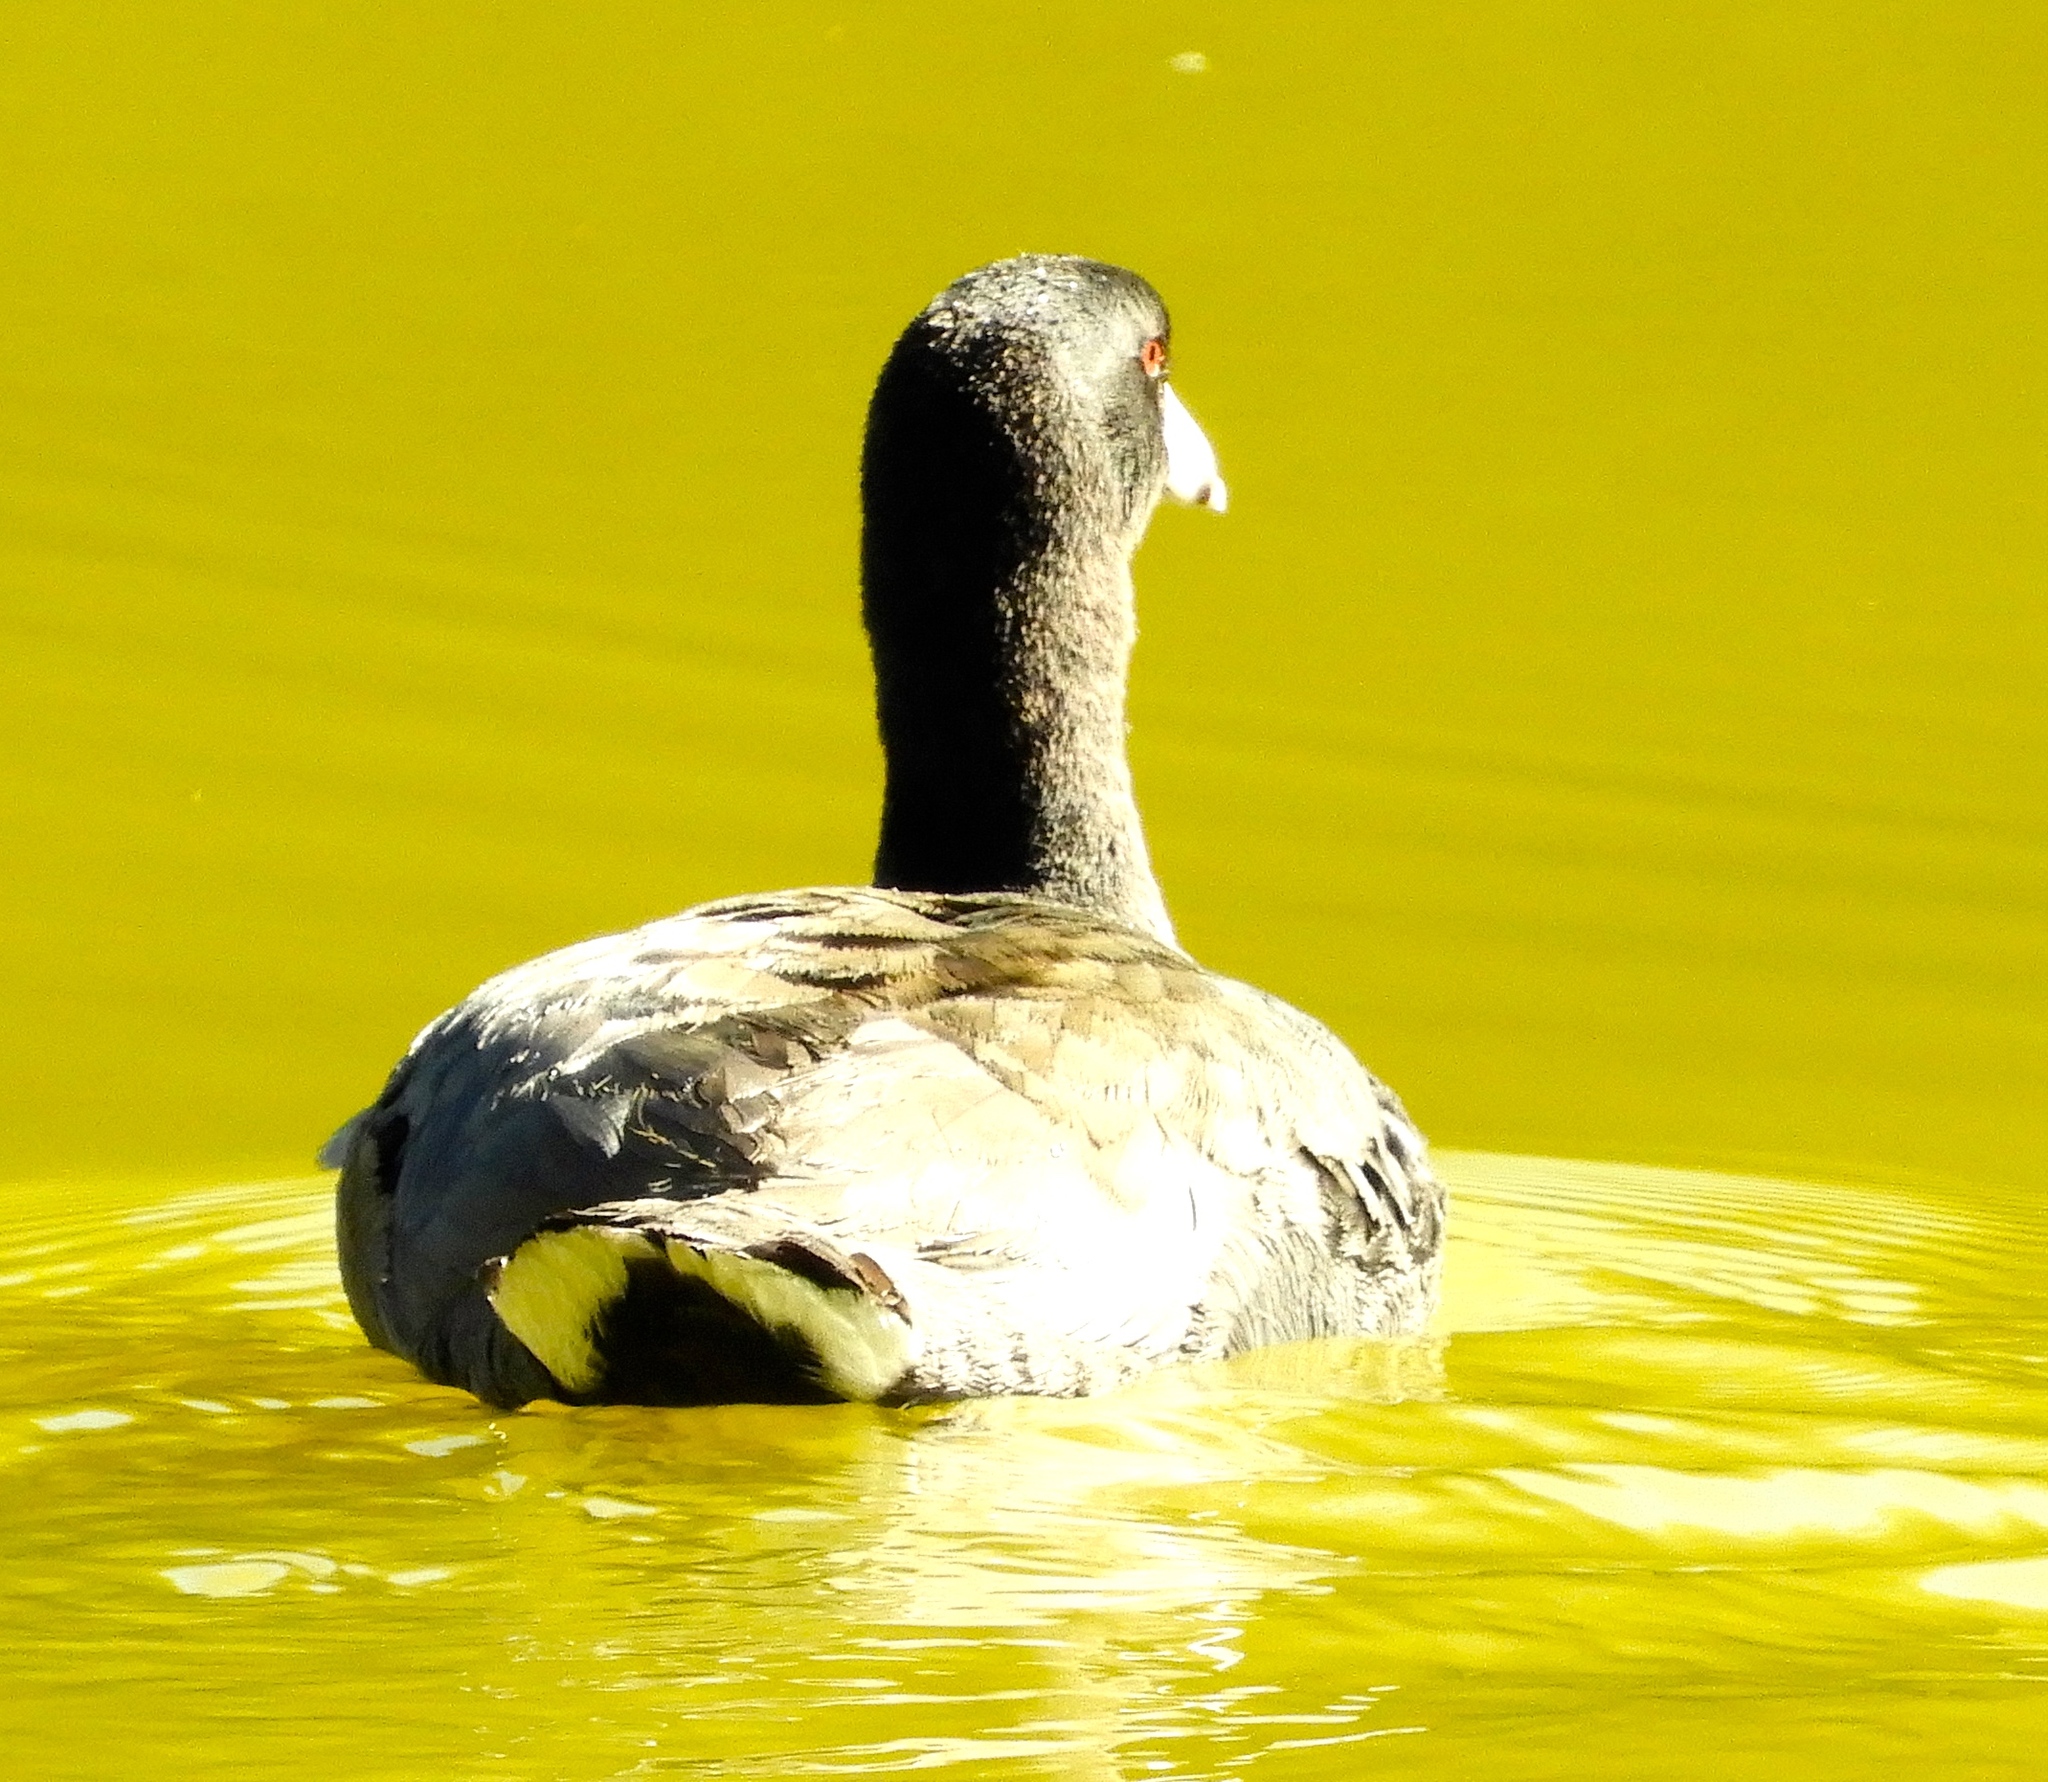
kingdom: Animalia
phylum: Chordata
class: Aves
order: Gruiformes
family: Rallidae
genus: Fulica
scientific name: Fulica americana
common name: American coot
